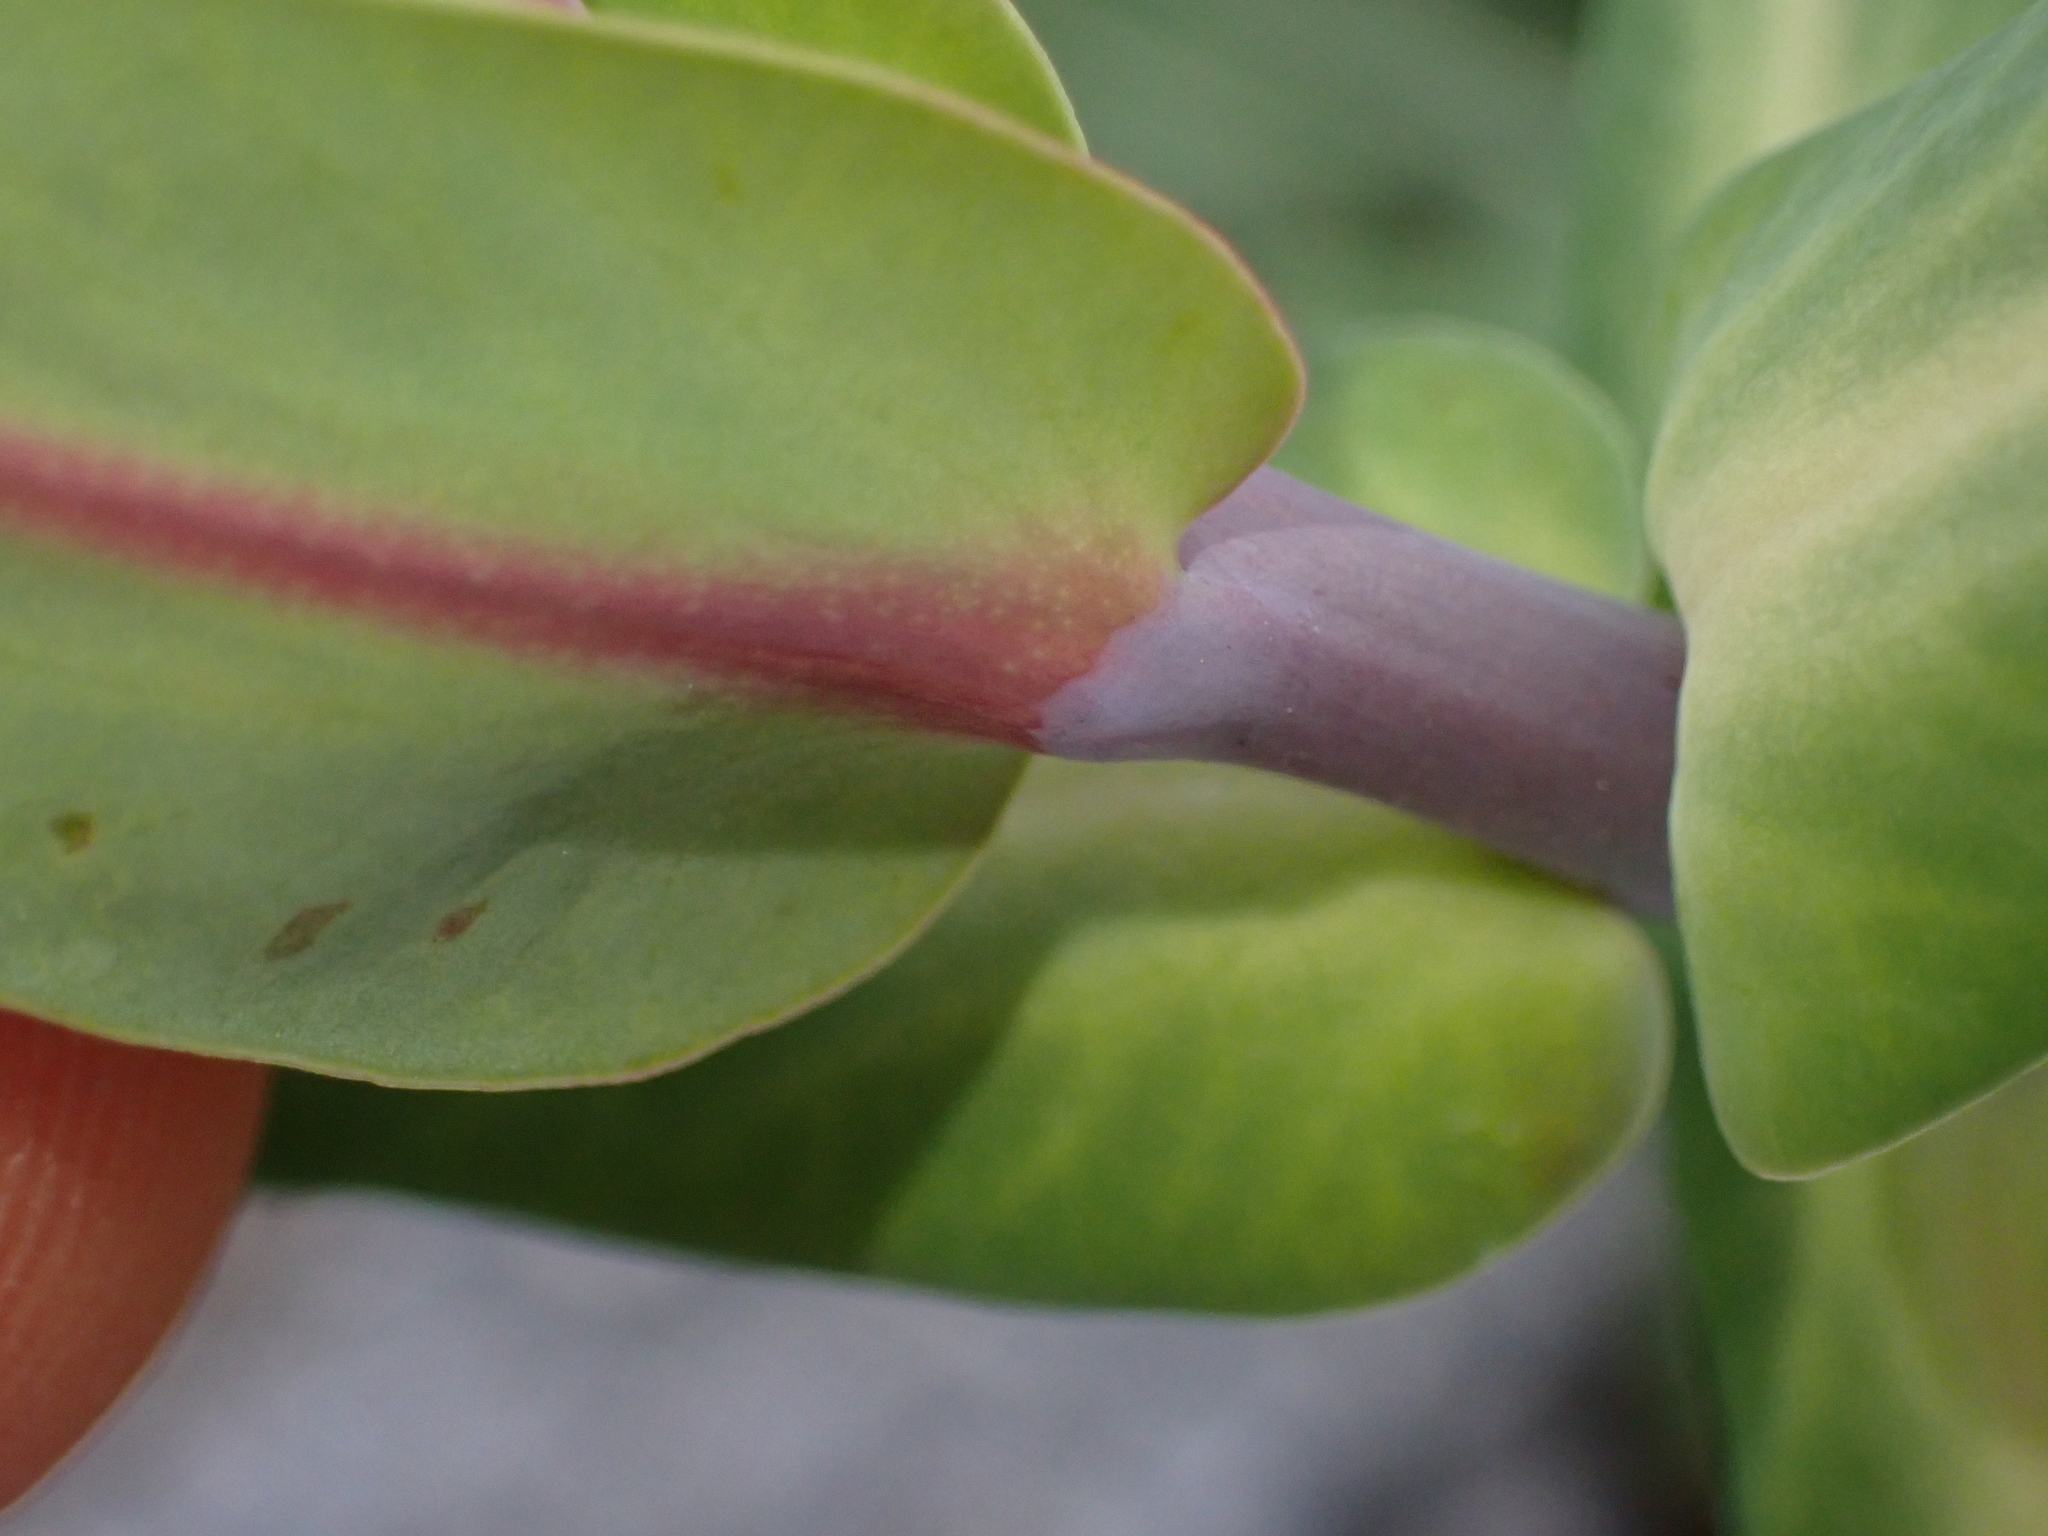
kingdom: Plantae
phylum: Tracheophyta
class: Magnoliopsida
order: Malpighiales
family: Euphorbiaceae
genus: Euphorbia
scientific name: Euphorbia lathyris
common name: Caper spurge
